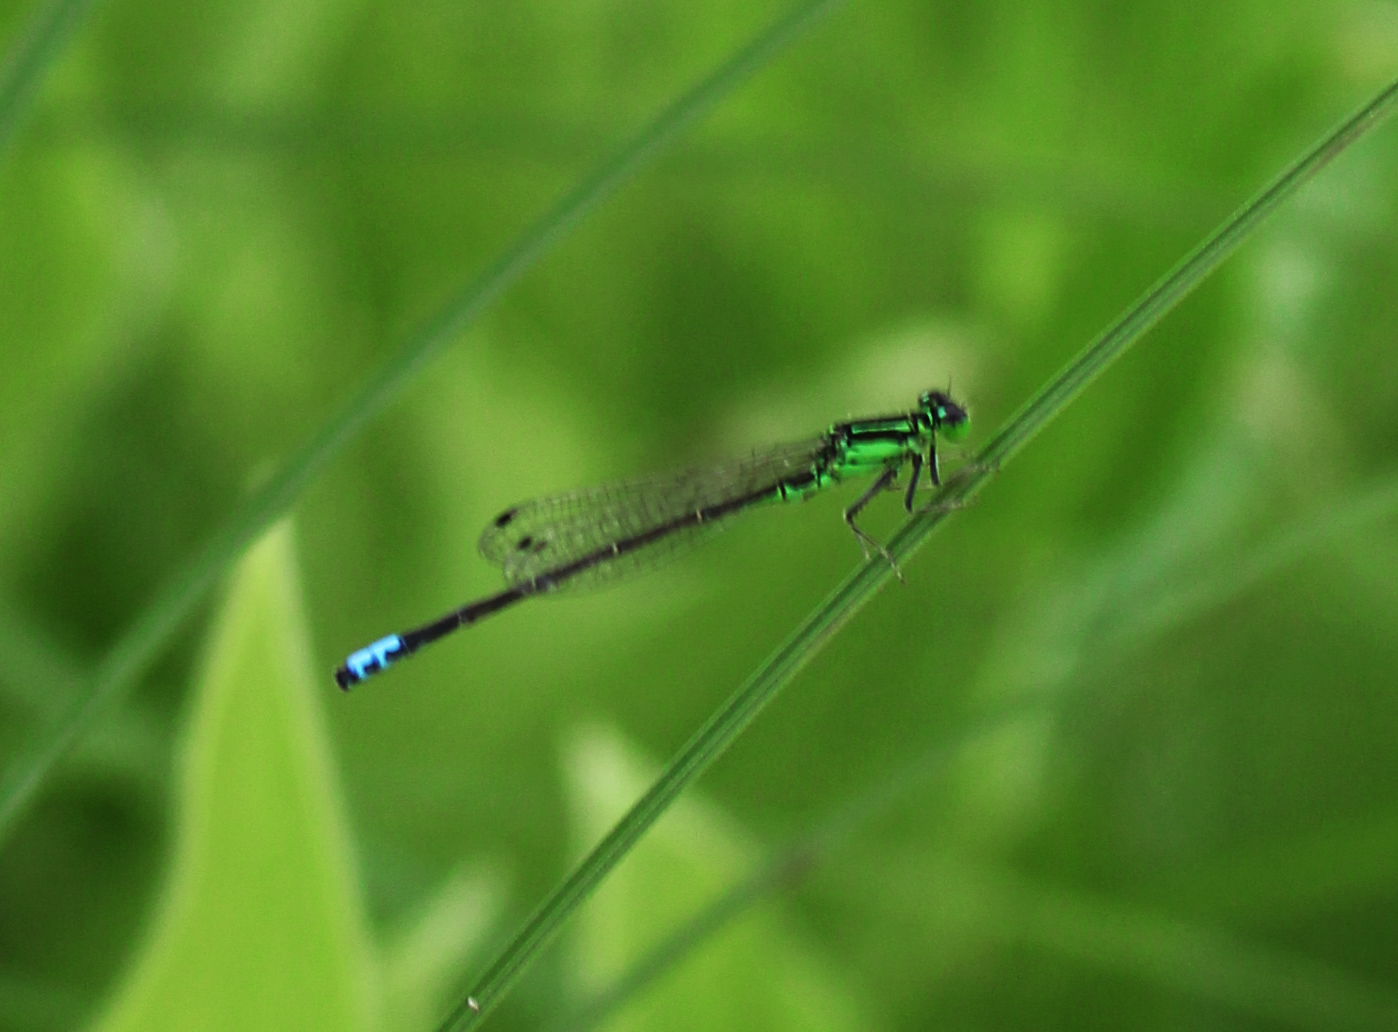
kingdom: Animalia
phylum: Arthropoda
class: Insecta
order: Odonata
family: Coenagrionidae
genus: Ischnura
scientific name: Ischnura verticalis
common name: Eastern forktail
